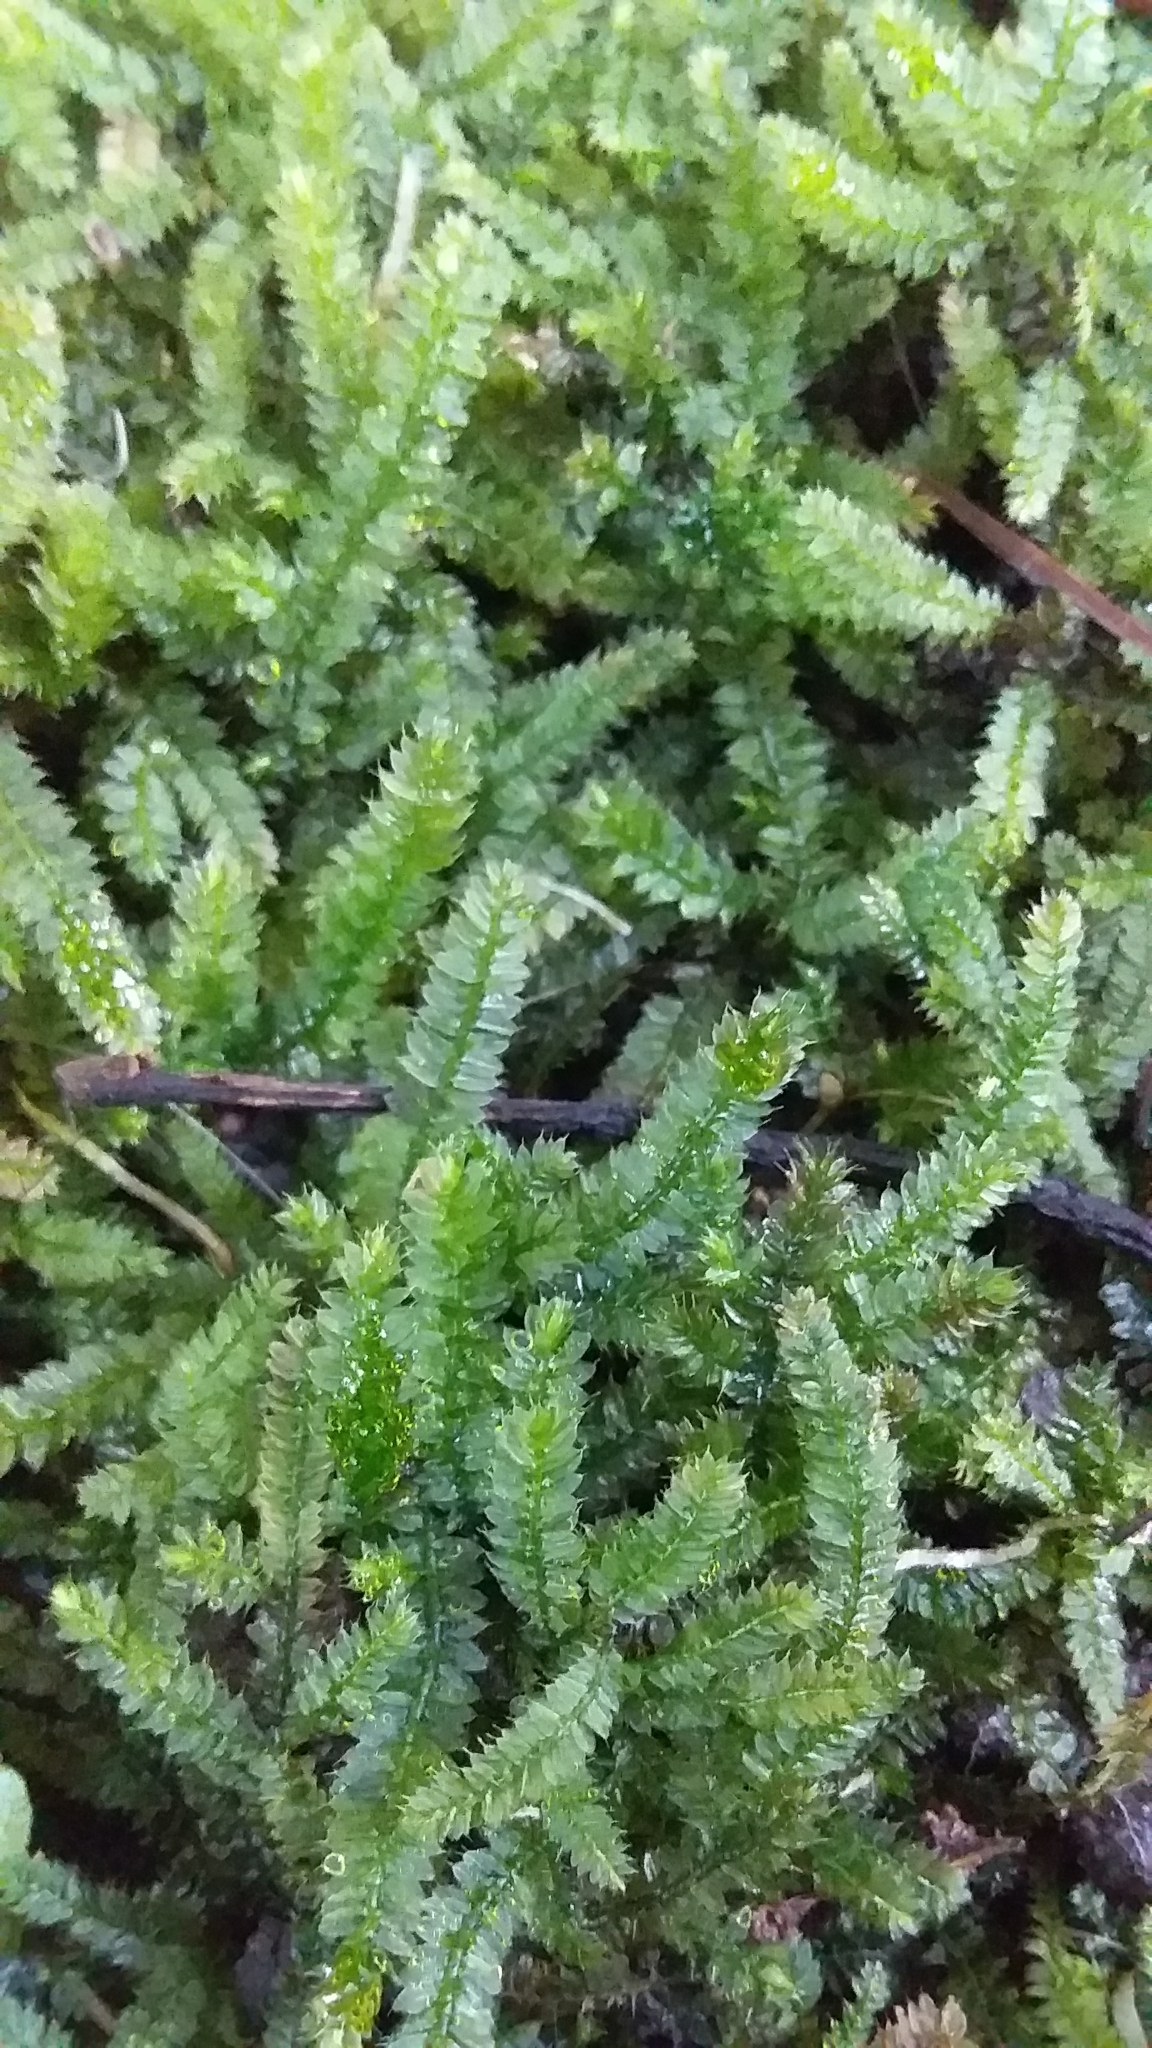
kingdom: Plantae
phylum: Bryophyta
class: Bryopsida
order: Hypnodendrales
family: Racopilaceae
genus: Racopilum
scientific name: Racopilum cuspidigerum
